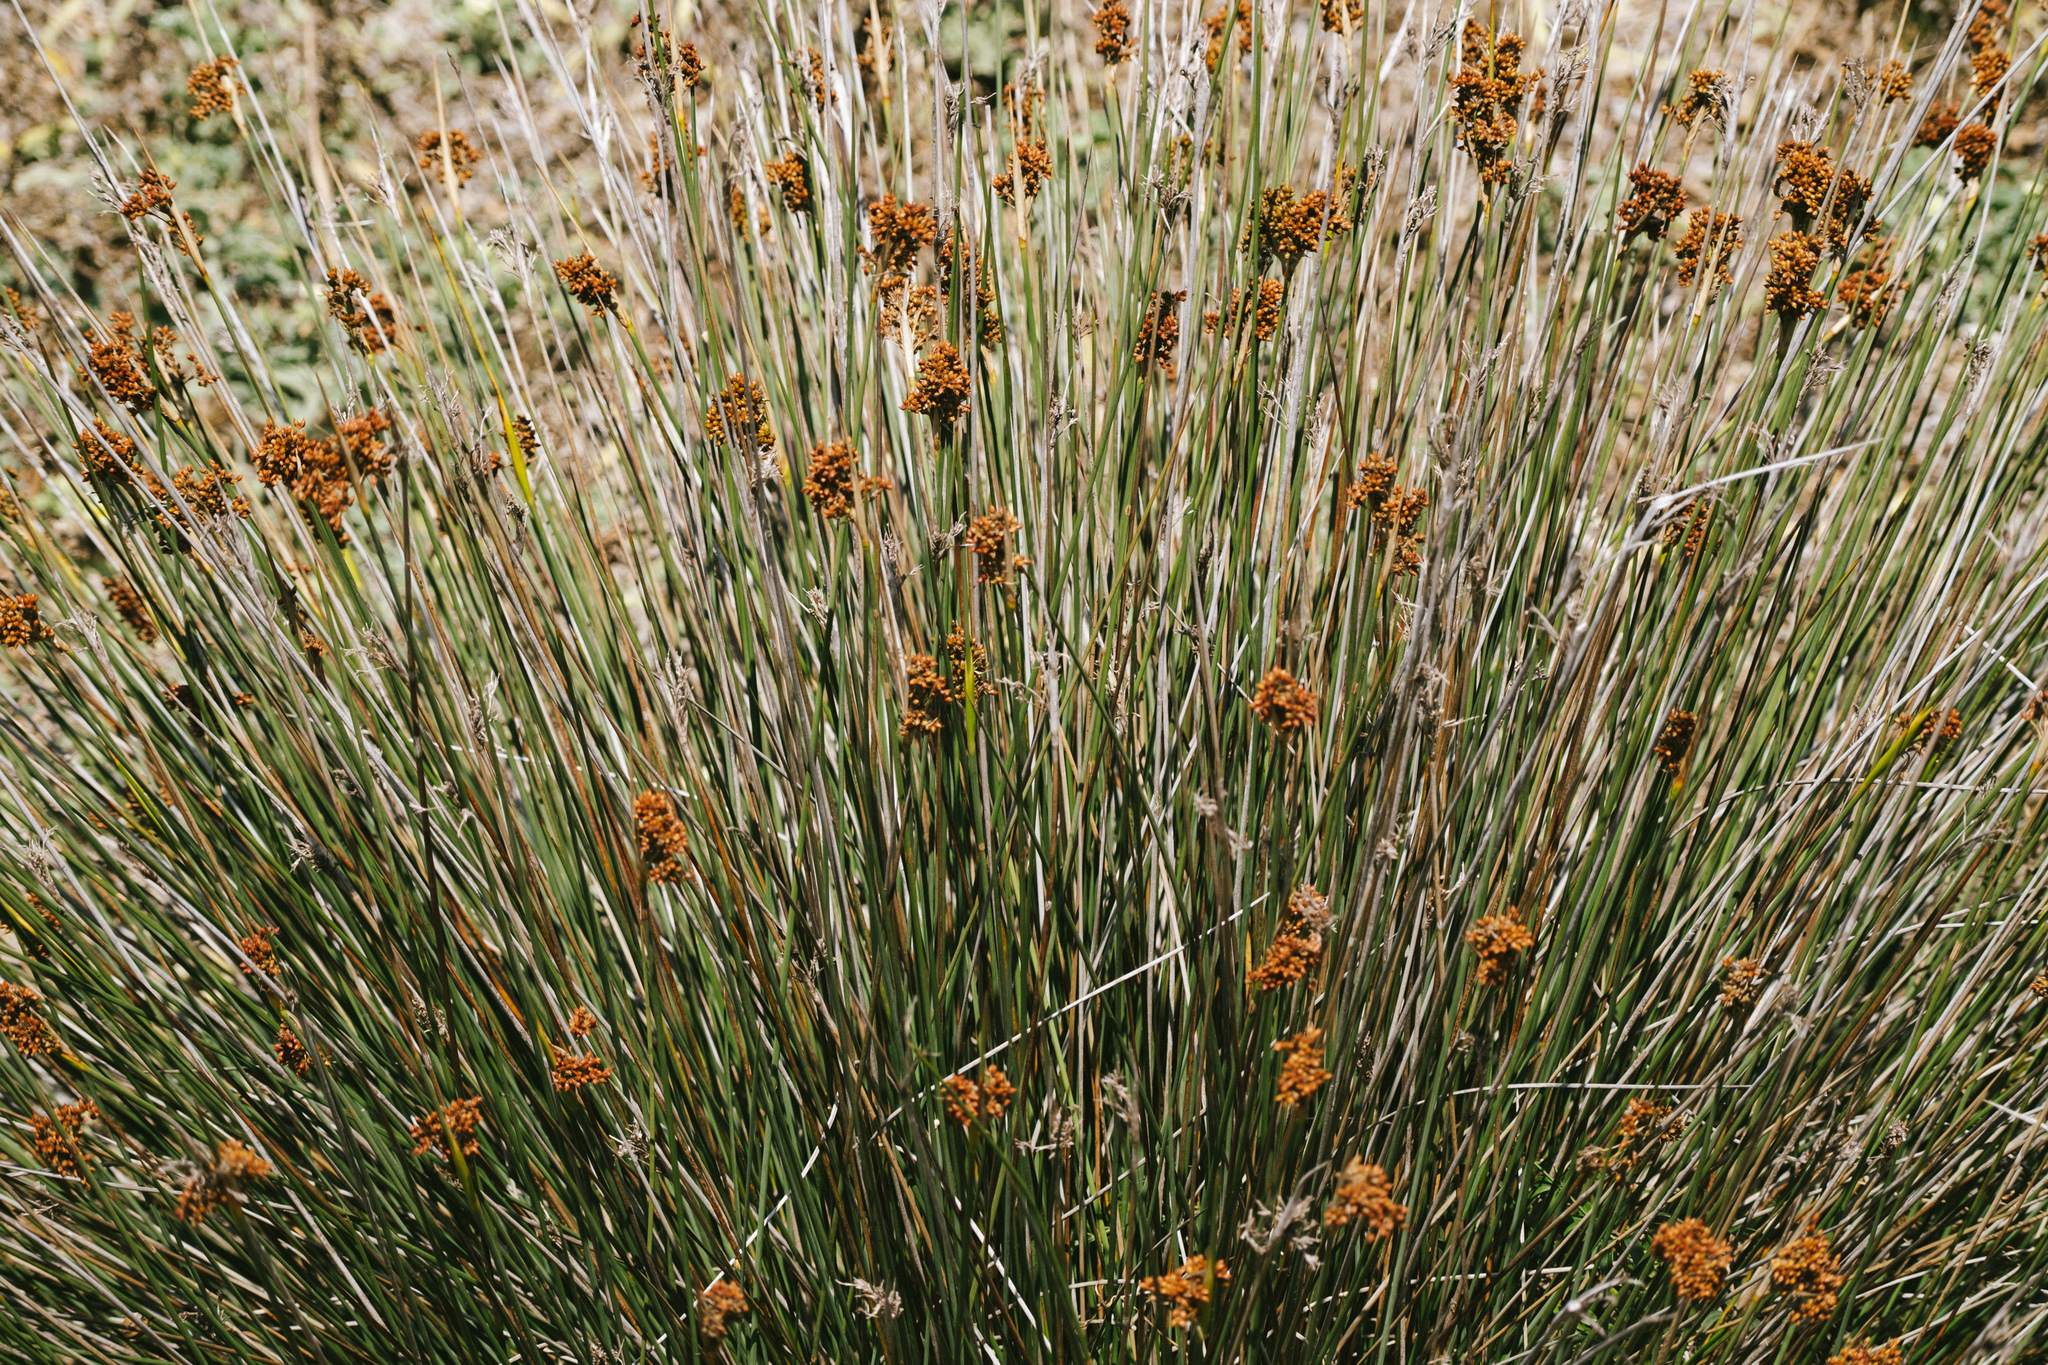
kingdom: Plantae
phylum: Tracheophyta
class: Liliopsida
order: Poales
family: Juncaceae
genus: Juncus
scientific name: Juncus acutus
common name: Sharp rush
